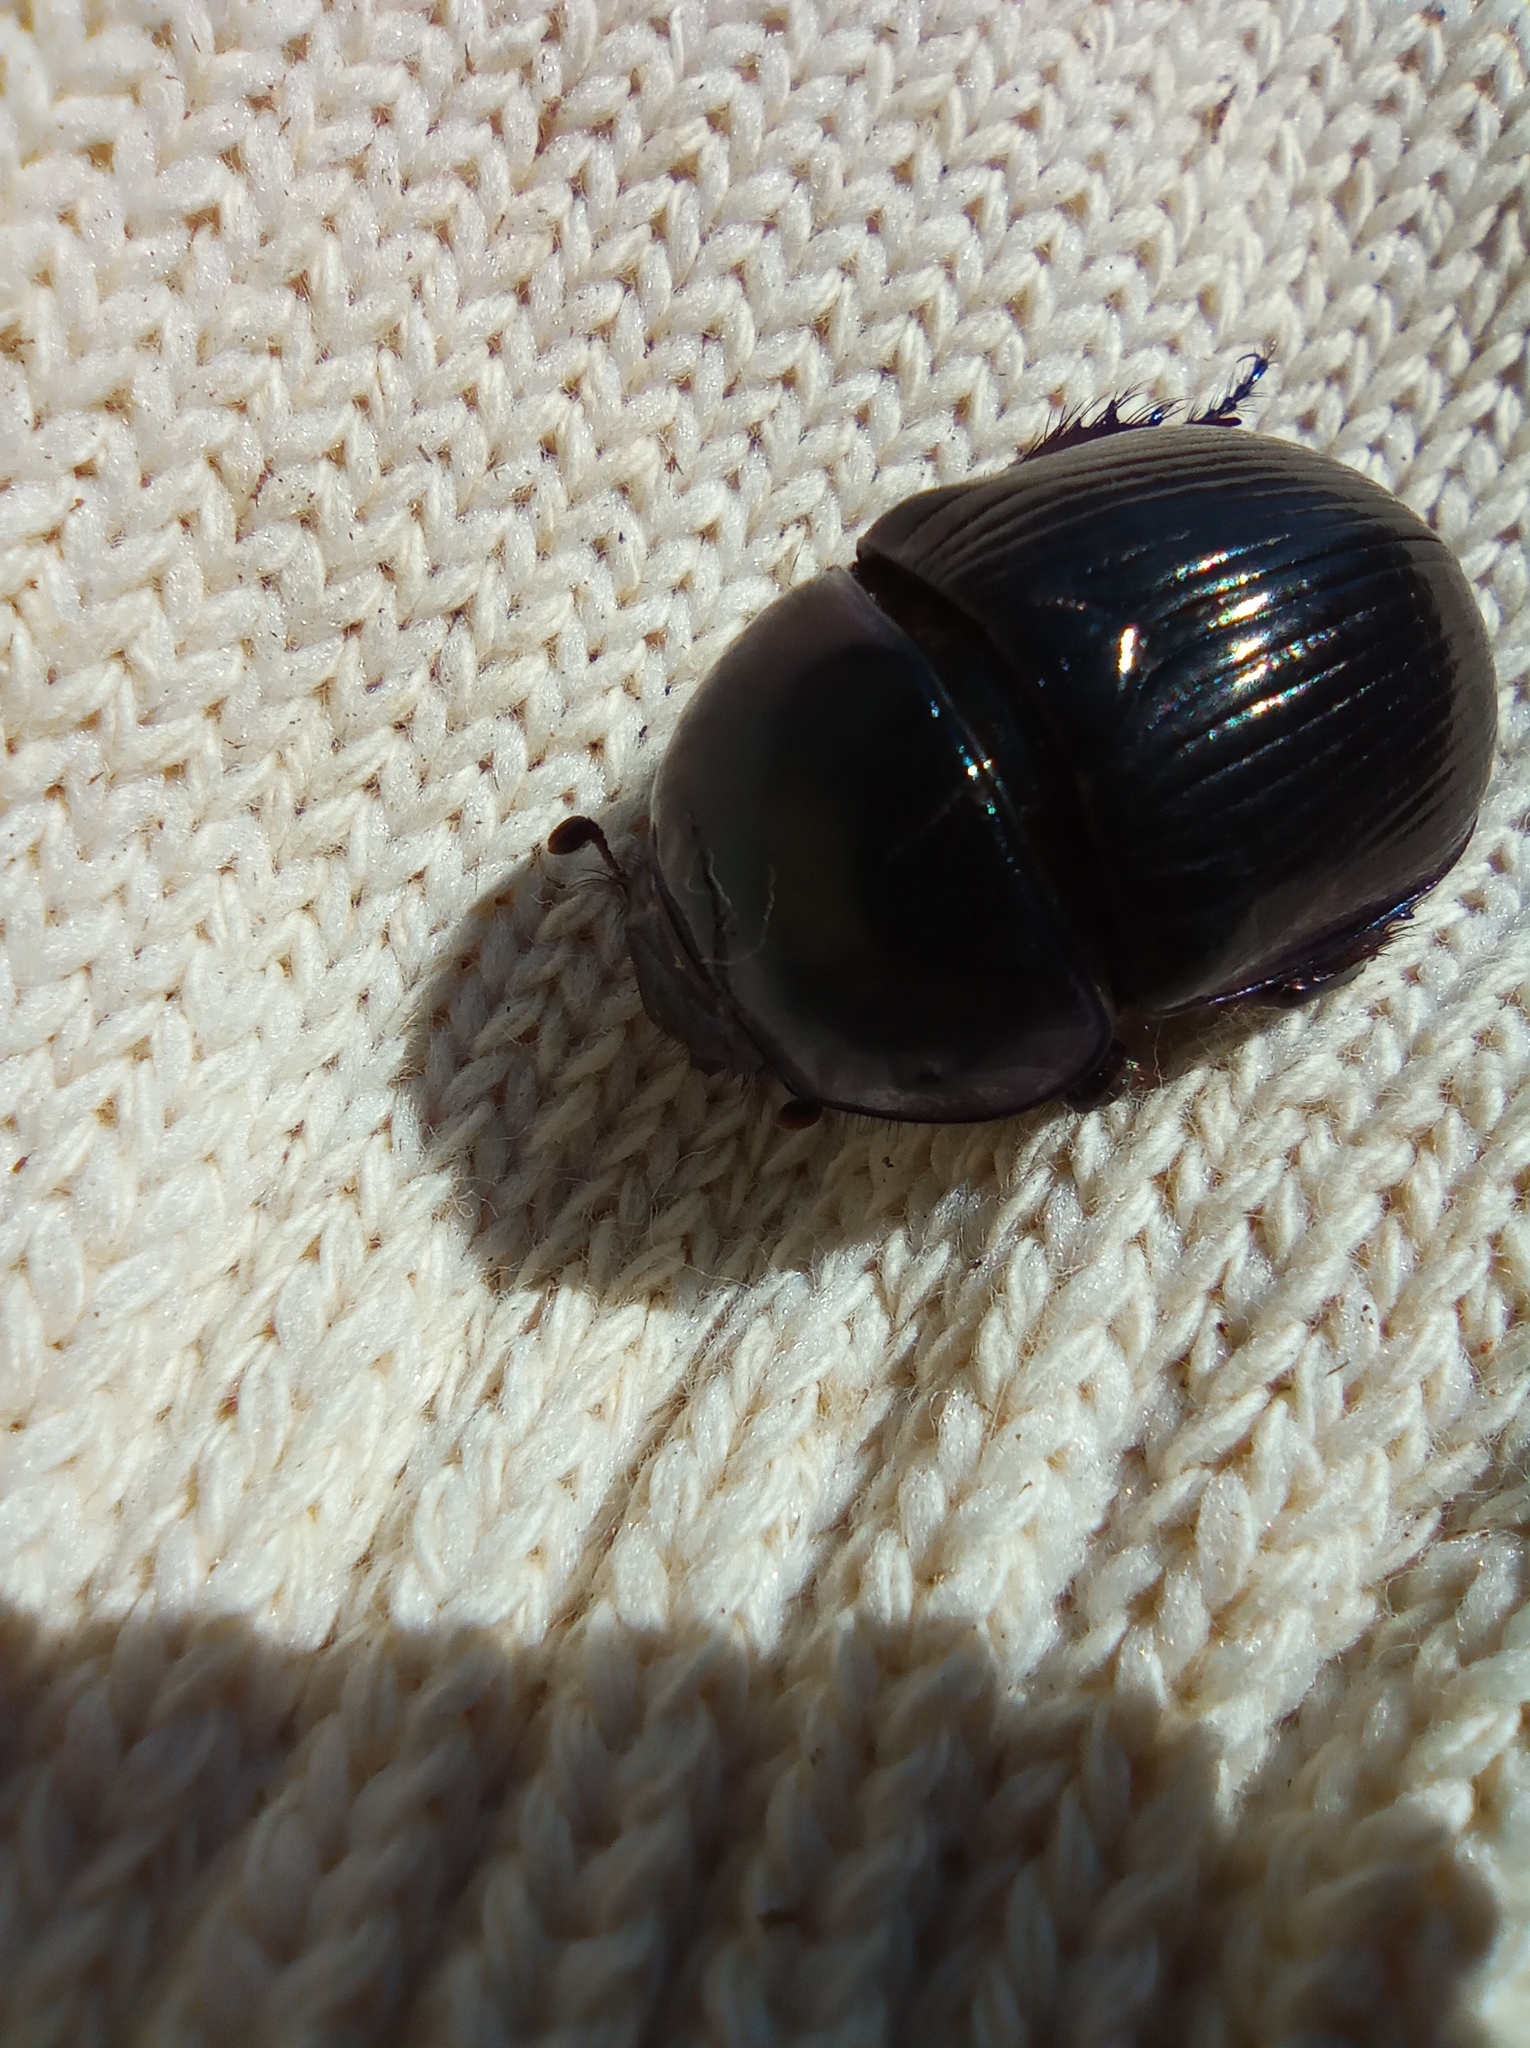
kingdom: Animalia
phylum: Arthropoda
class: Insecta
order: Coleoptera
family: Geotrupidae
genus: Anoplotrupes
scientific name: Anoplotrupes stercorosus
